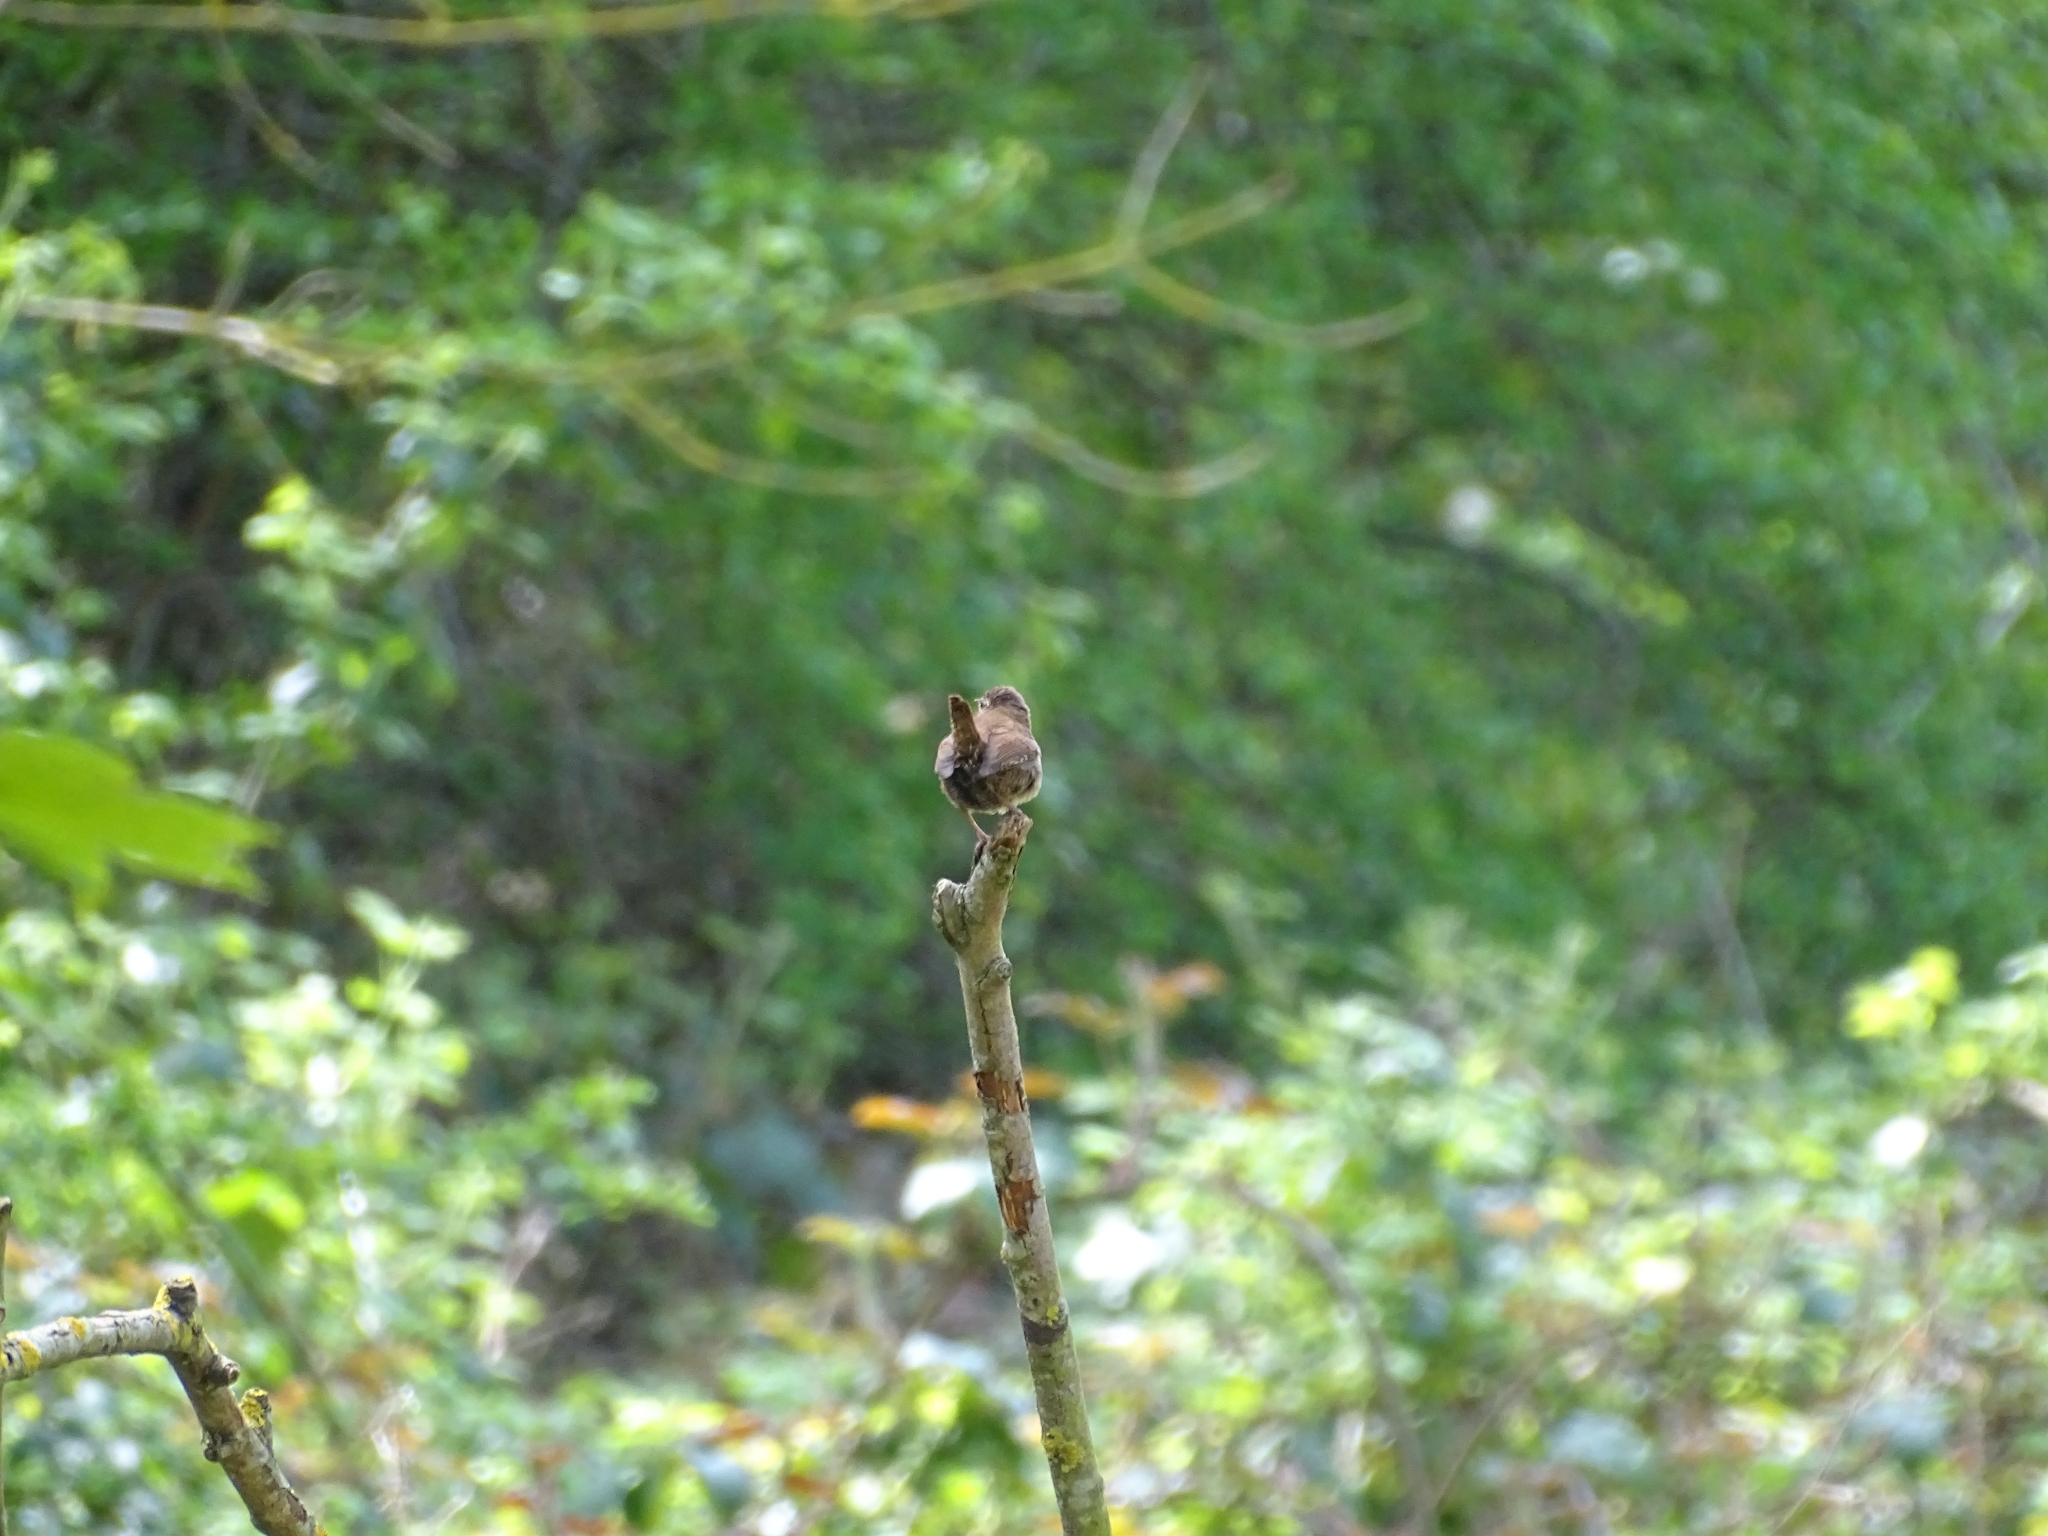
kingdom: Animalia
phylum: Chordata
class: Aves
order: Passeriformes
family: Troglodytidae
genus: Troglodytes
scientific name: Troglodytes troglodytes
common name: Eurasian wren
